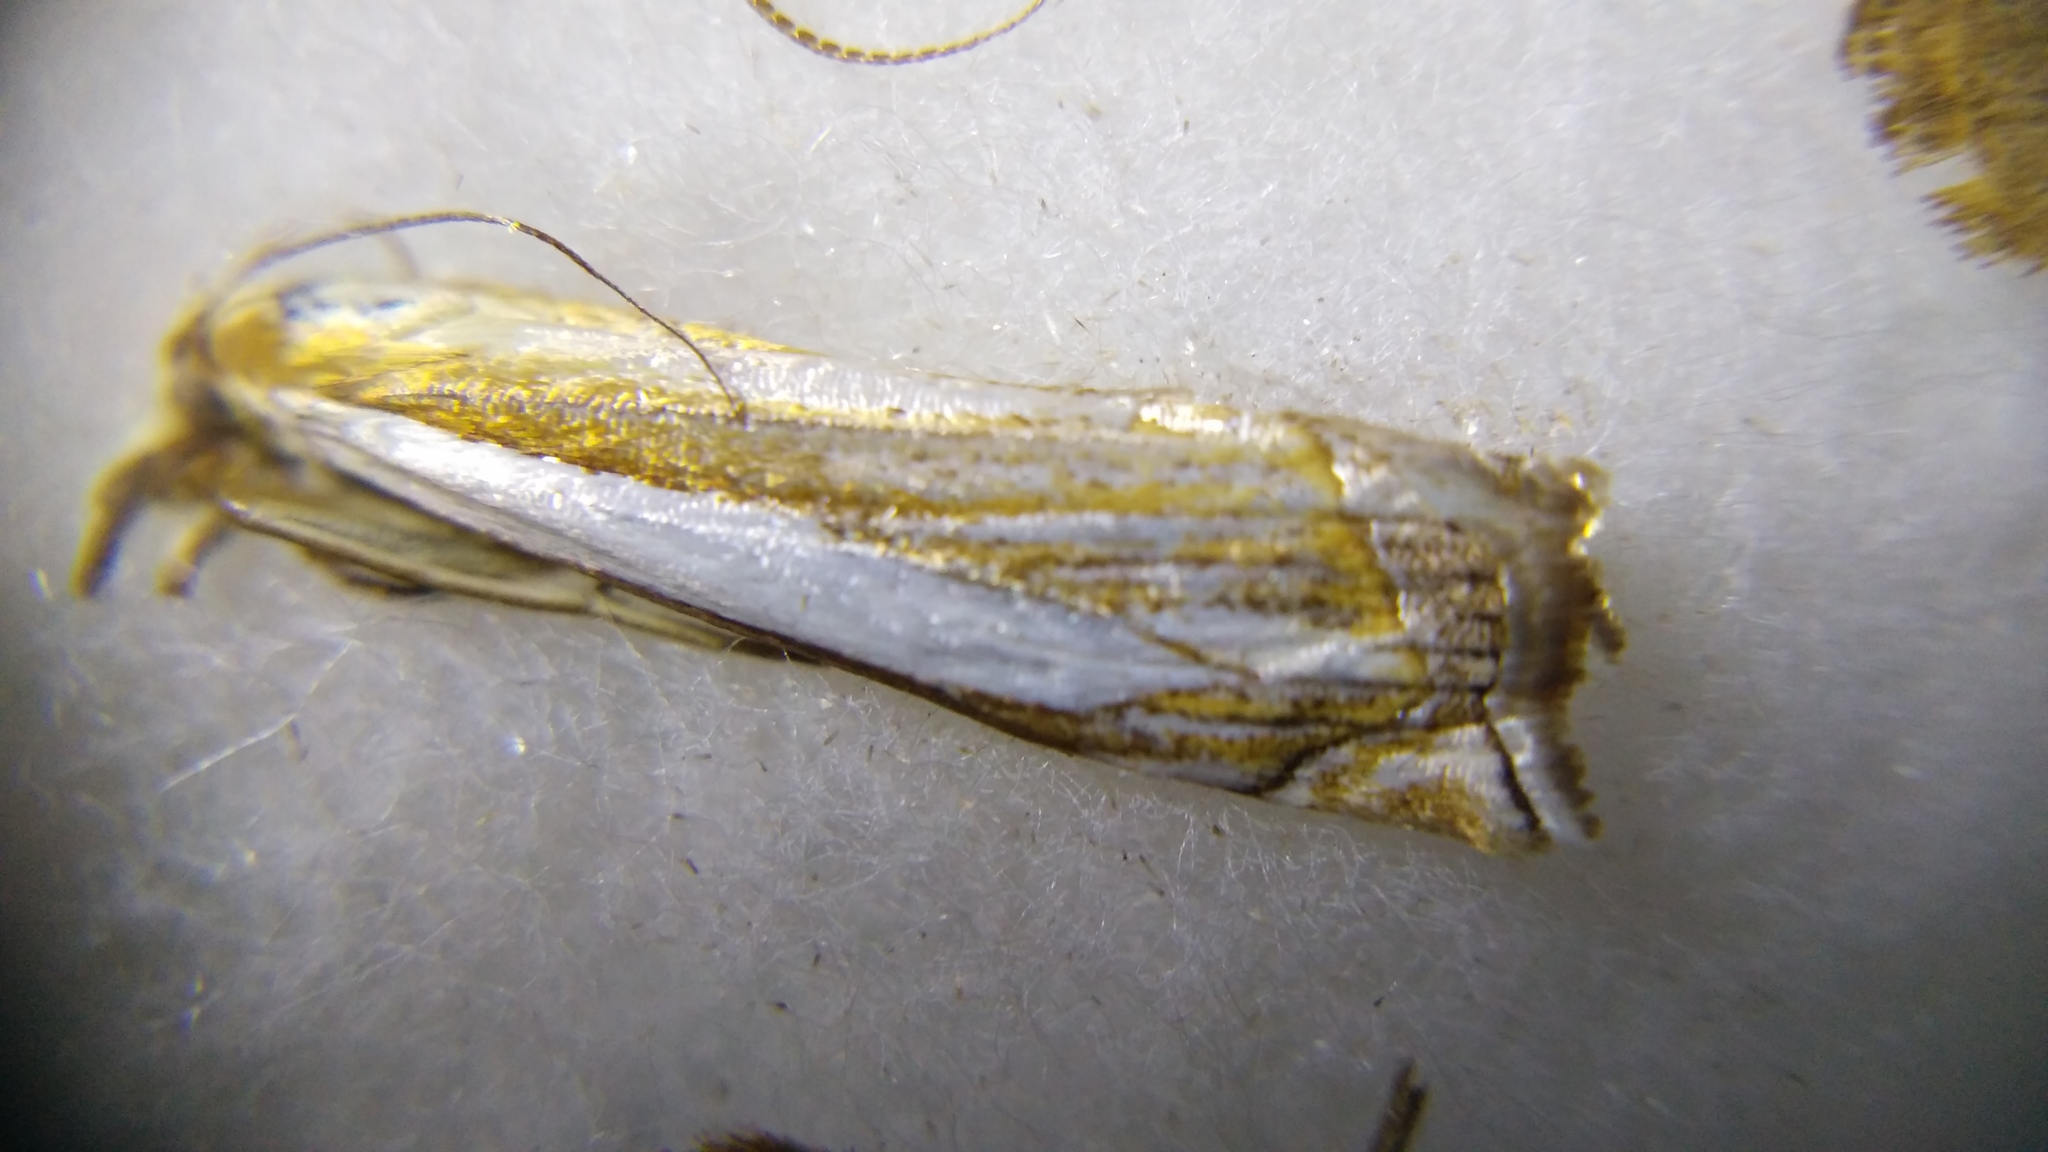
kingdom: Animalia
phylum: Arthropoda
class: Insecta
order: Lepidoptera
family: Crambidae
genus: Crambus
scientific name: Crambus pascuella
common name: Inlaid grass-veneer
